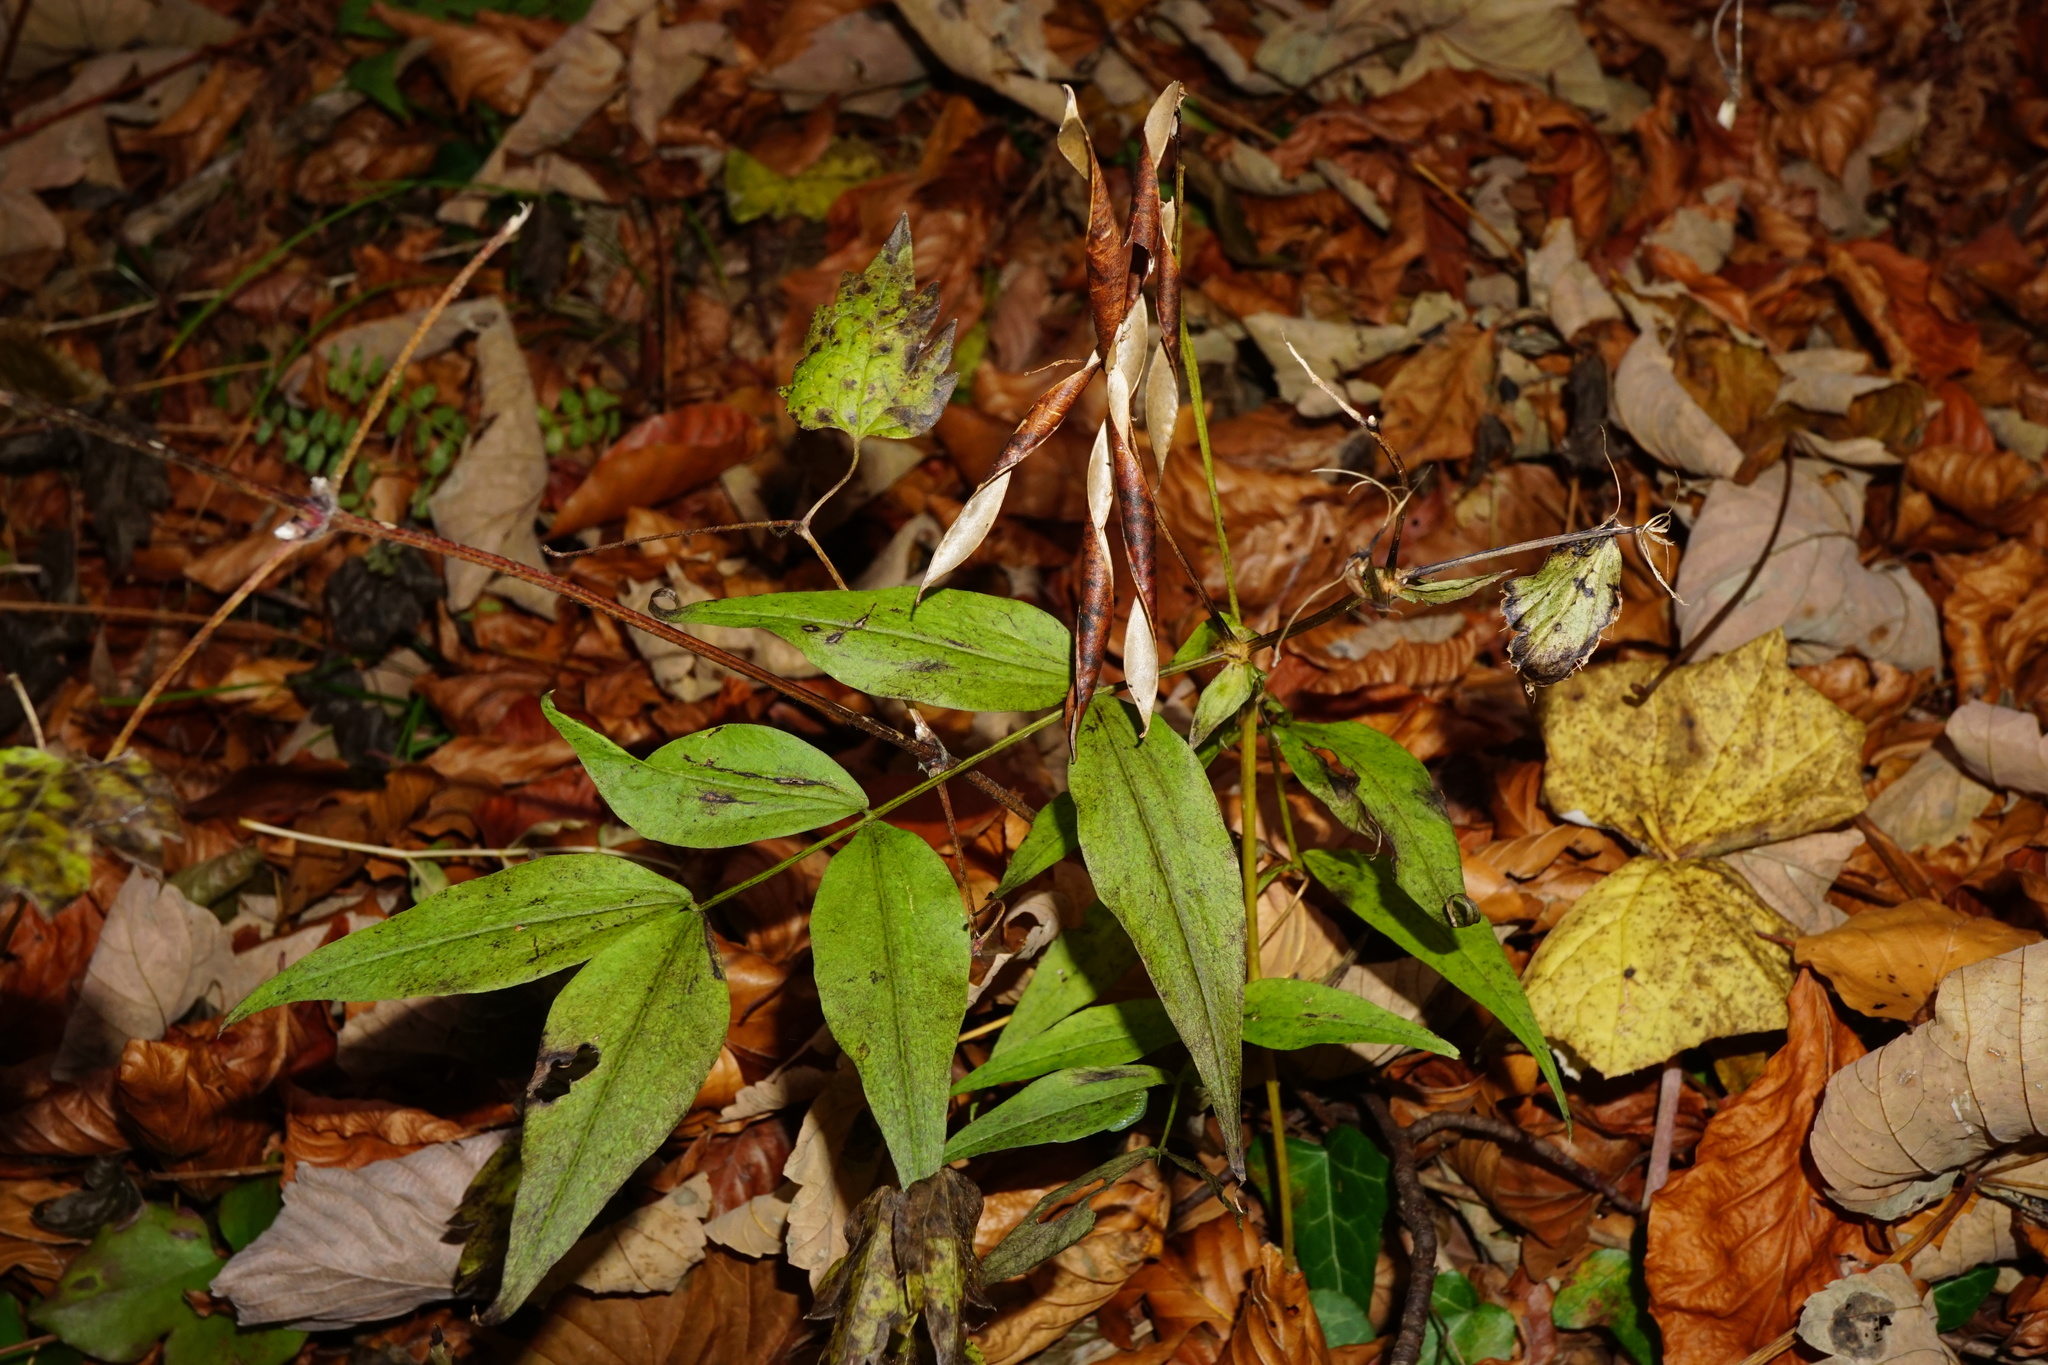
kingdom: Plantae
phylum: Tracheophyta
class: Magnoliopsida
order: Fabales
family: Fabaceae
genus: Lathyrus
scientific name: Lathyrus vernus
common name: Spring pea
